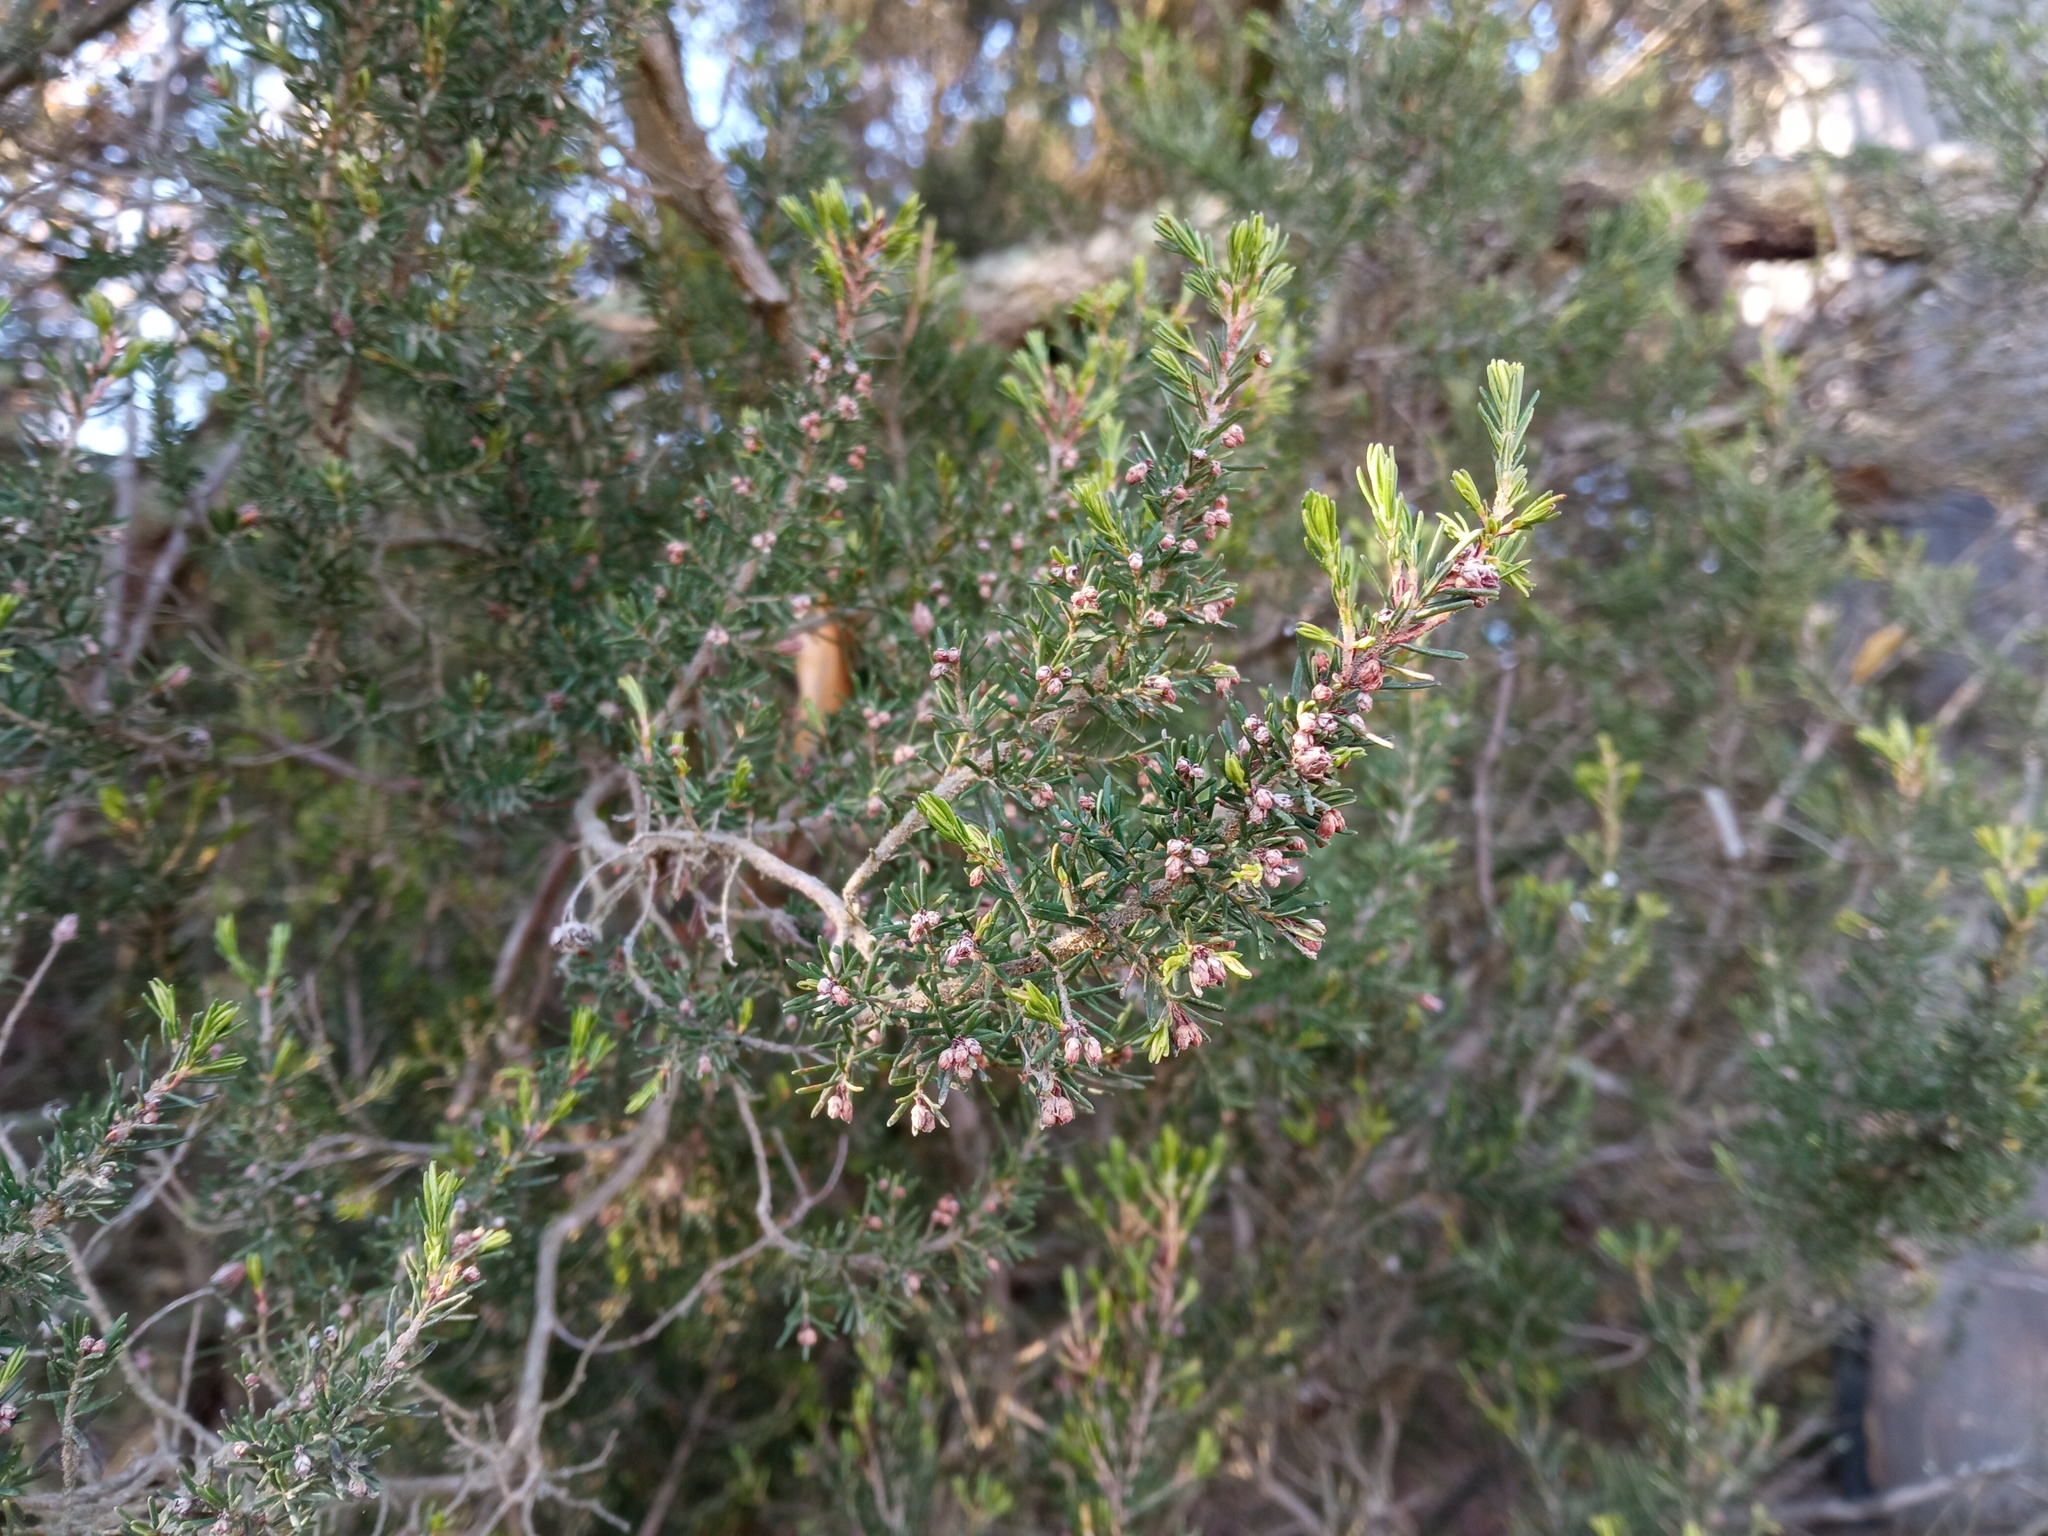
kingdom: Plantae
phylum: Tracheophyta
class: Magnoliopsida
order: Ericales
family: Ericaceae
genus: Erica
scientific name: Erica arborea
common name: Tree heath
